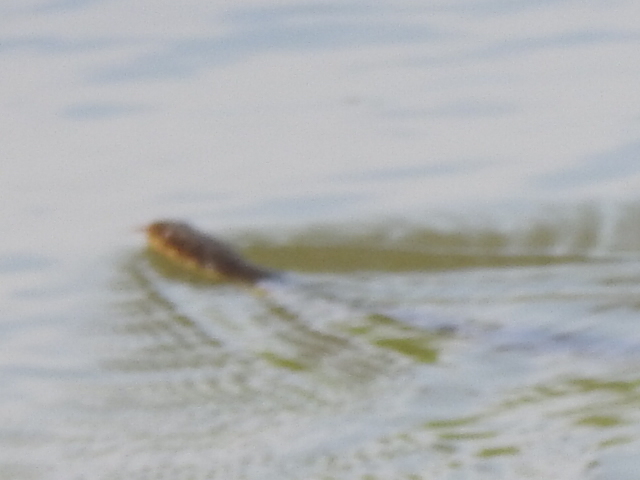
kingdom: Animalia
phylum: Chordata
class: Squamata
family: Colubridae
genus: Nerodia
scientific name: Nerodia erythrogaster
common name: Plainbelly water snake
